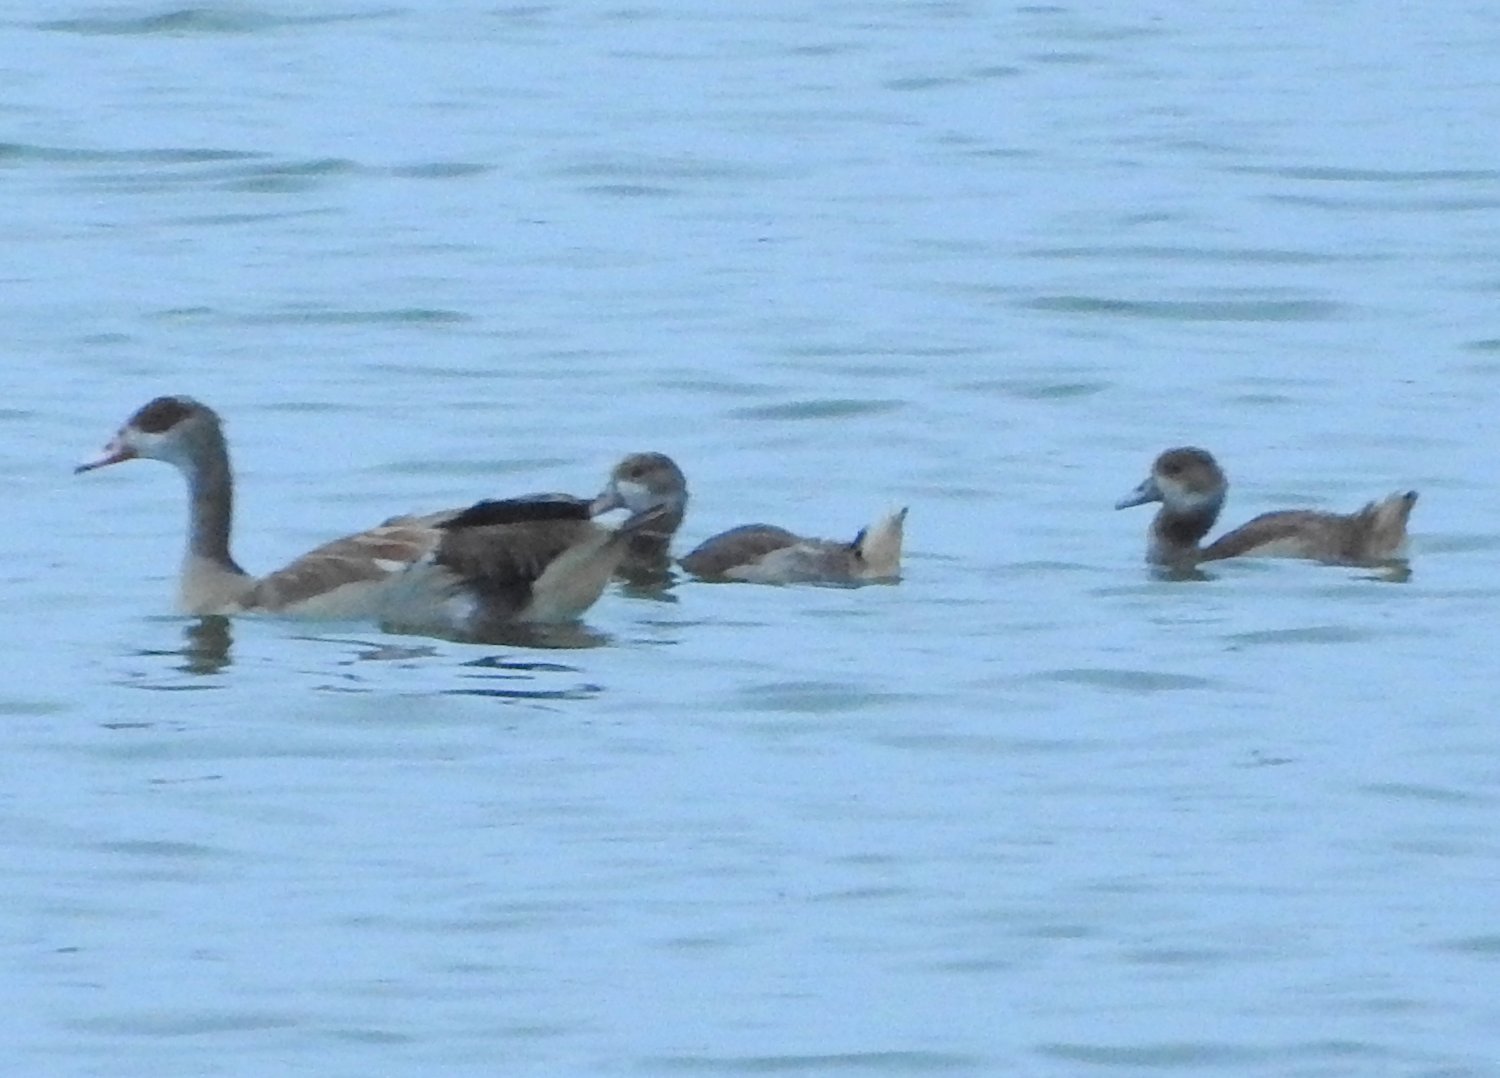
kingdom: Animalia
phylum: Chordata
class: Aves
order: Anseriformes
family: Anatidae
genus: Alopochen
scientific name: Alopochen aegyptiaca
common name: Egyptian goose
